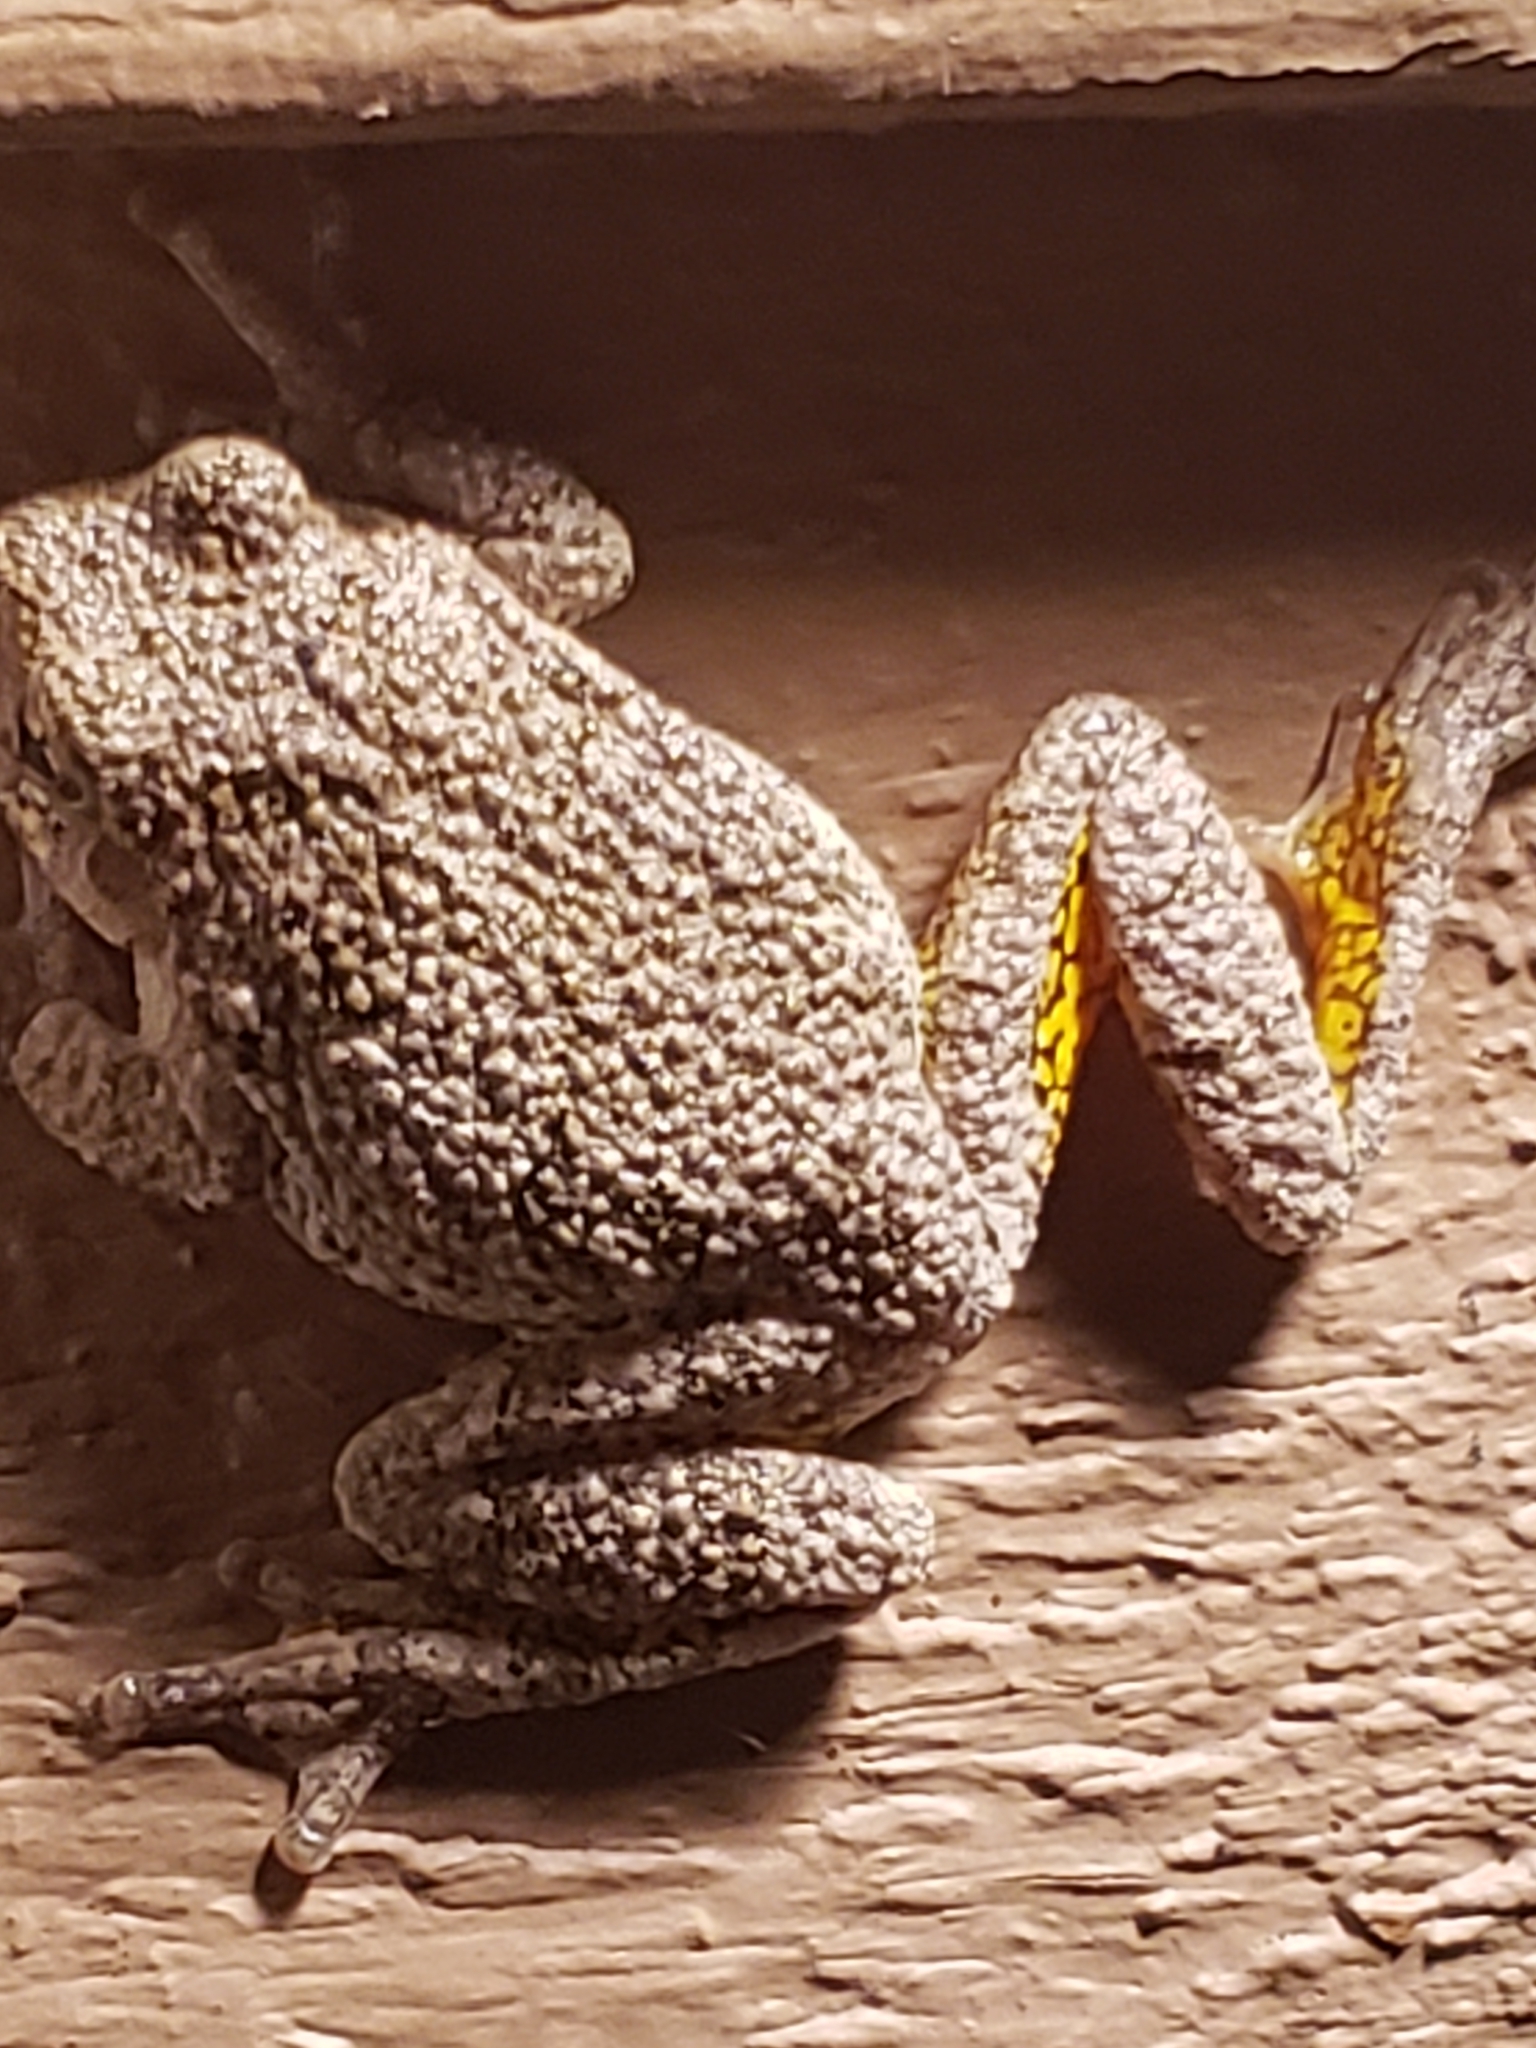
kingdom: Animalia
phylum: Chordata
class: Amphibia
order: Anura
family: Hylidae
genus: Hyla
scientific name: Hyla
